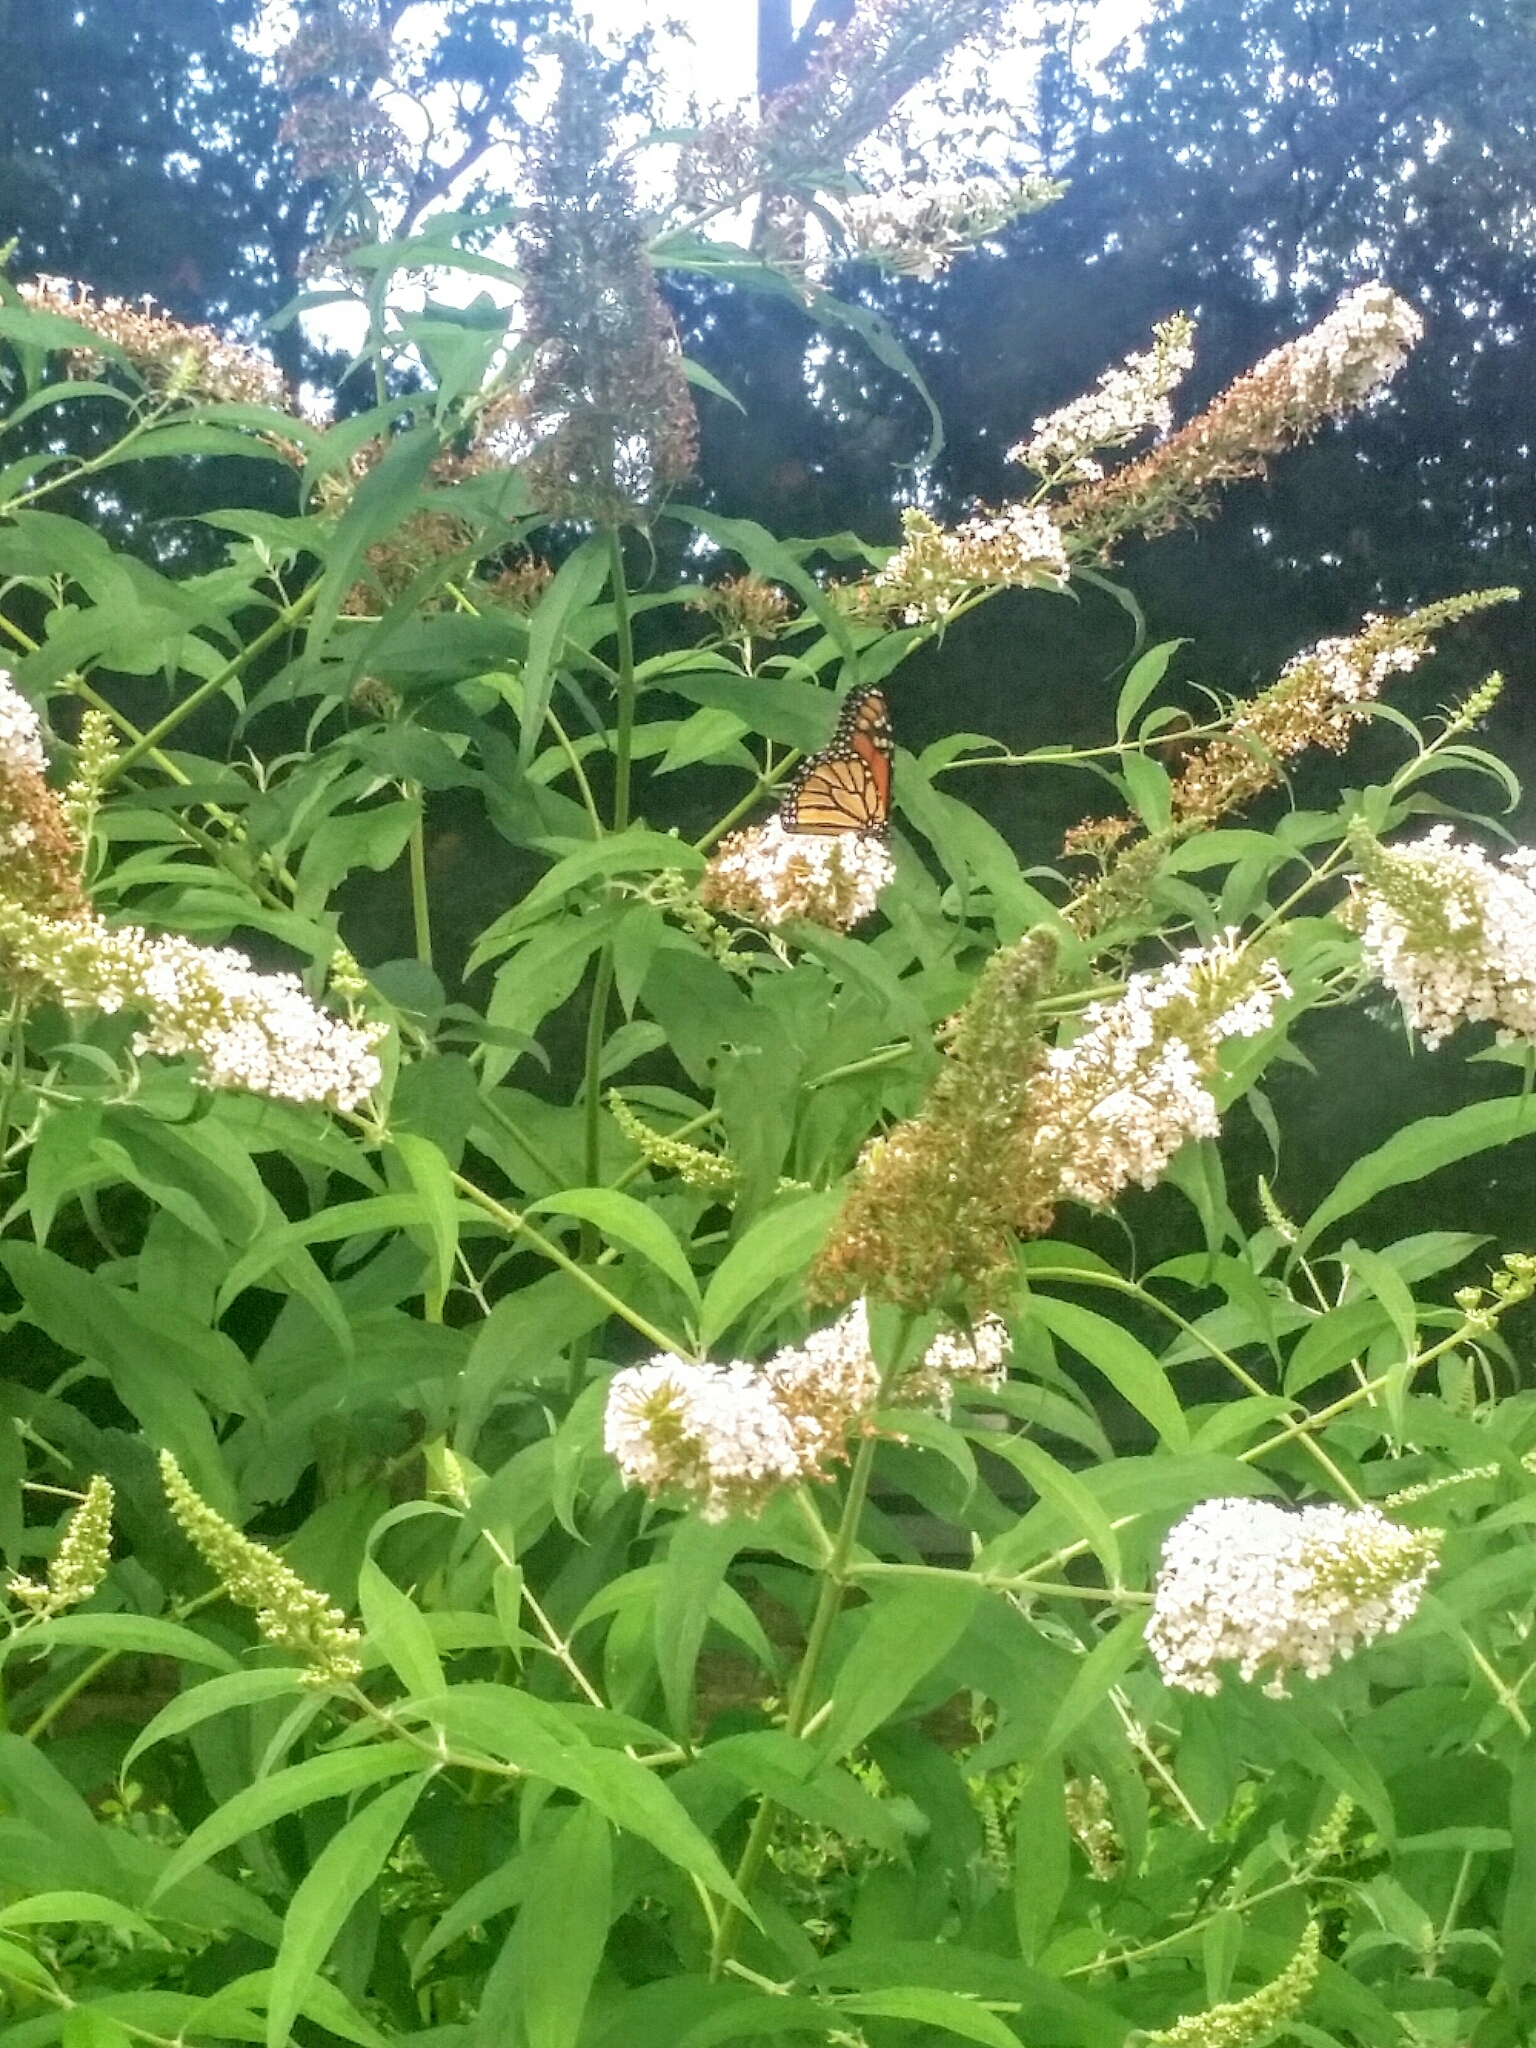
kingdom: Animalia
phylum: Arthropoda
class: Insecta
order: Lepidoptera
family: Nymphalidae
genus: Danaus
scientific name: Danaus plexippus
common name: Monarch
